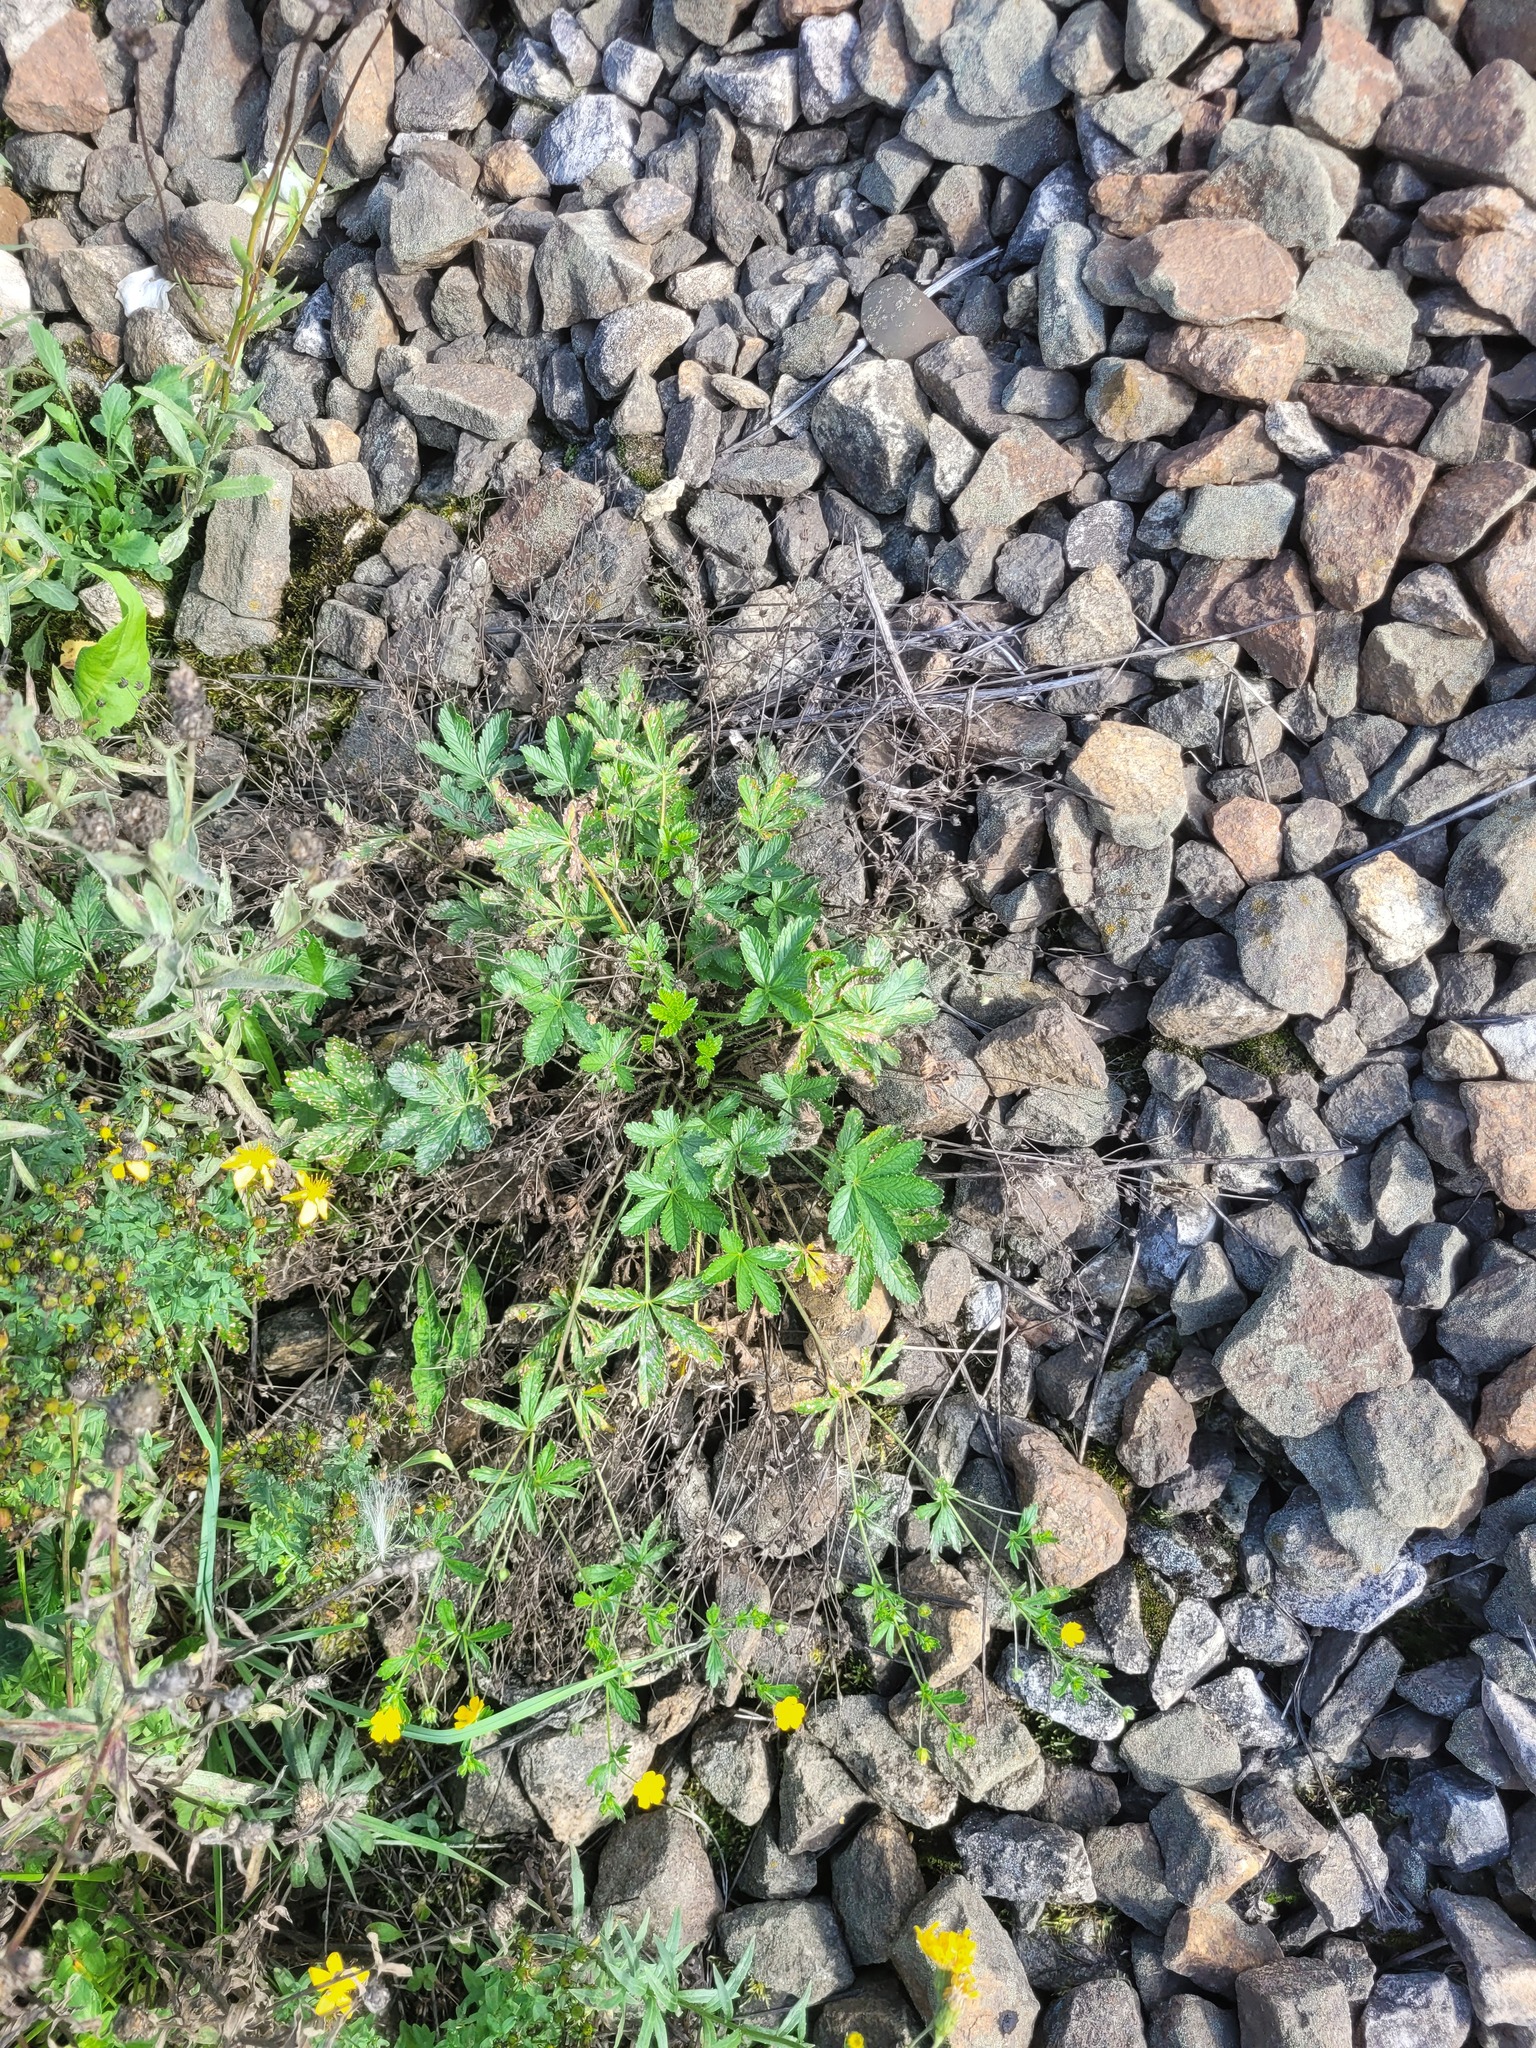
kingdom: Plantae
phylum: Tracheophyta
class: Magnoliopsida
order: Rosales
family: Rosaceae
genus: Potentilla
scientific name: Potentilla thuringiaca
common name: European cinquefoil
